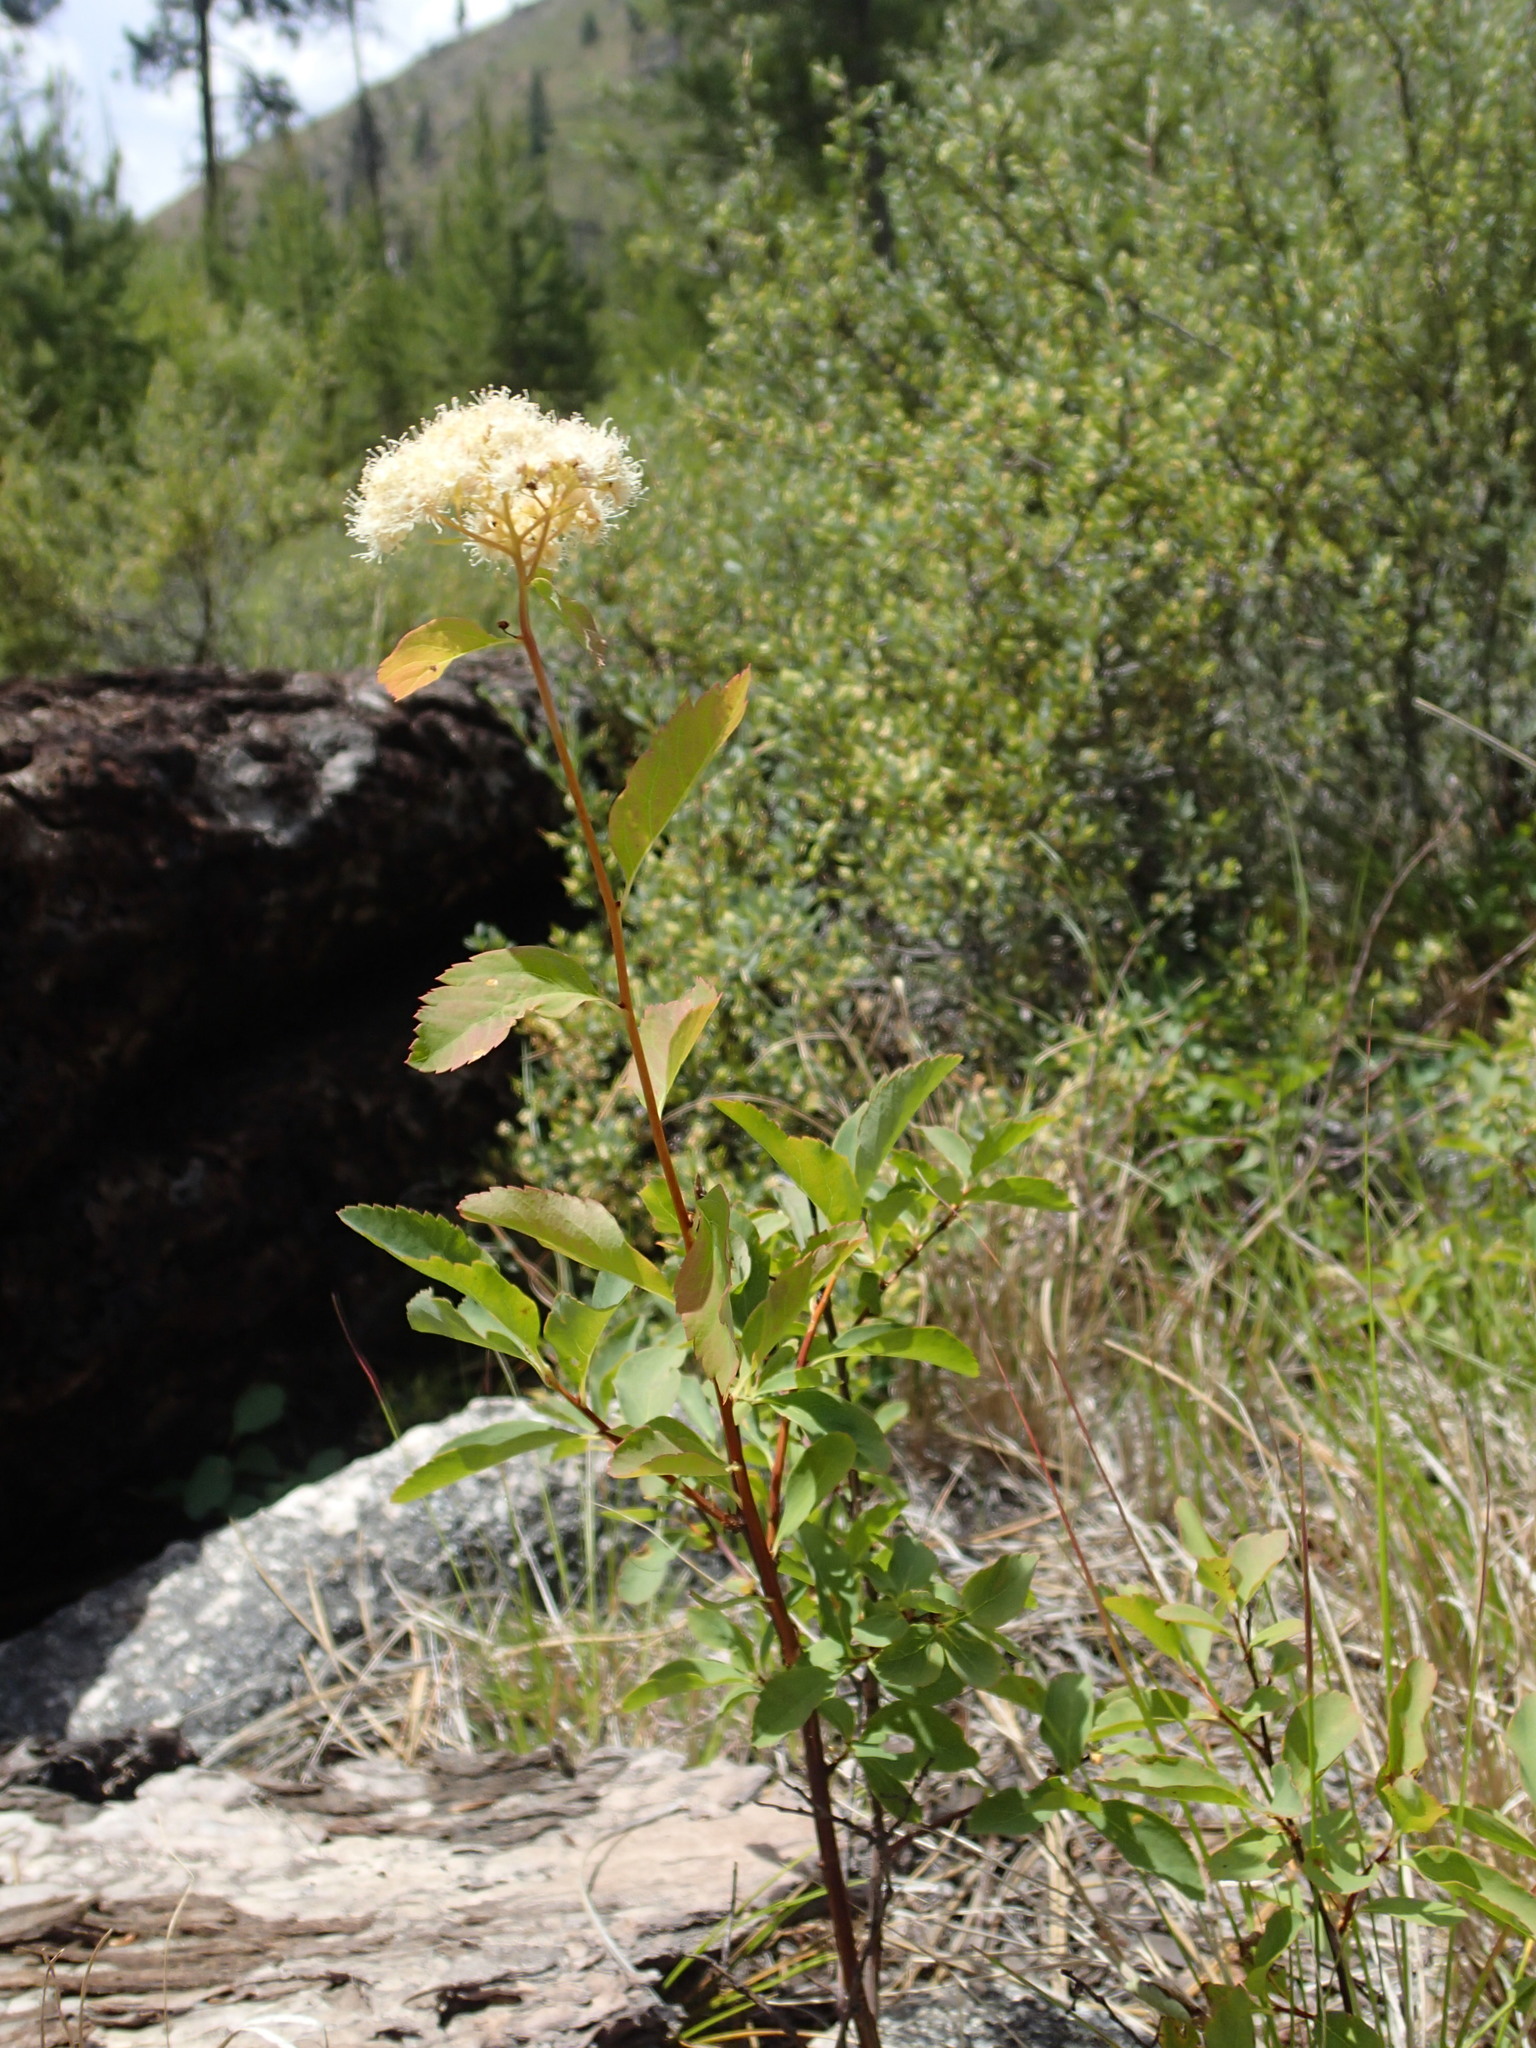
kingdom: Plantae
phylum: Tracheophyta
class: Magnoliopsida
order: Rosales
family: Rosaceae
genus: Spiraea
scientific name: Spiraea lucida
